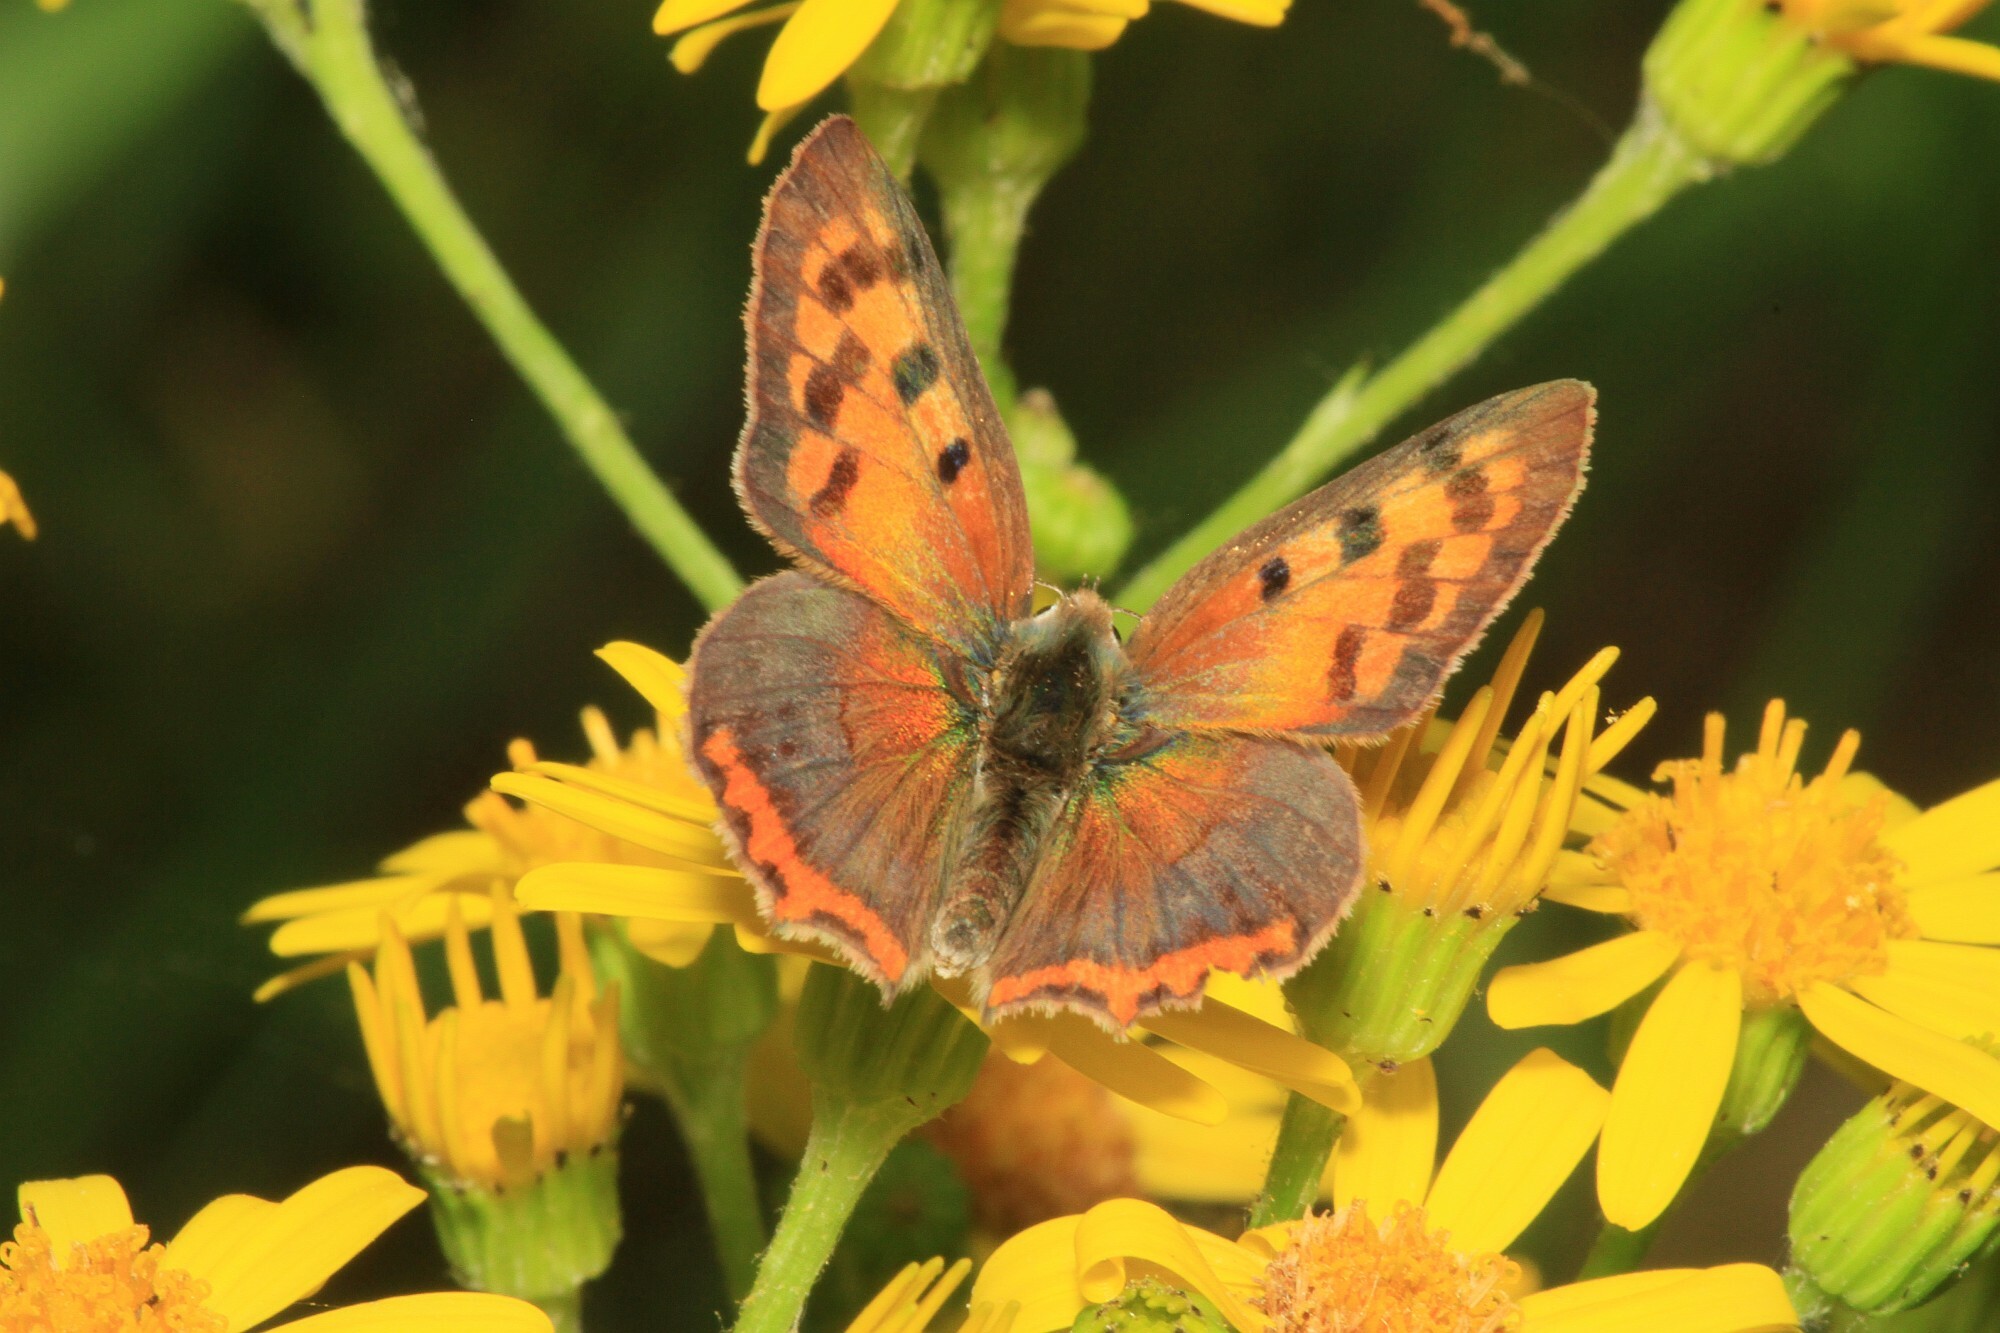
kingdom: Animalia
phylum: Arthropoda
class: Insecta
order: Lepidoptera
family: Lycaenidae
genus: Lycaena
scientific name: Lycaena phlaeas
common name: Small copper
